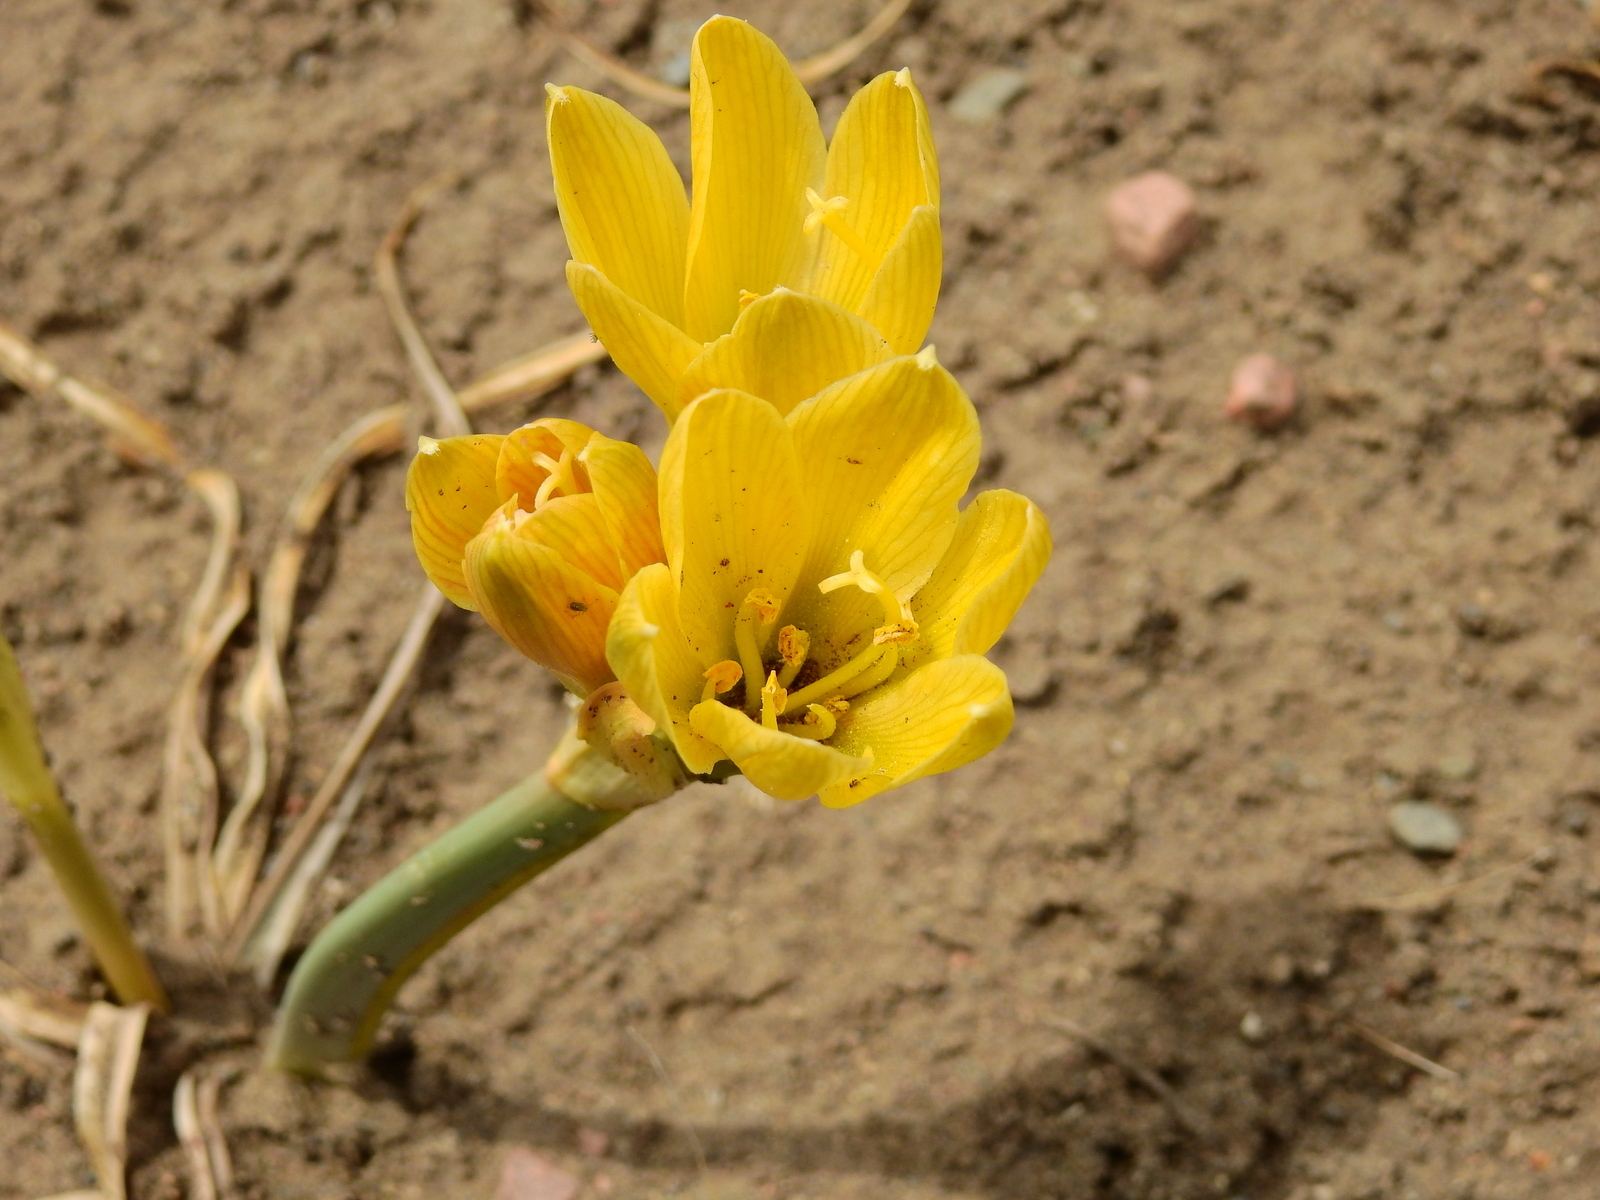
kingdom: Plantae
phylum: Tracheophyta
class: Liliopsida
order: Asparagales
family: Amaryllidaceae
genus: Zephyranthes
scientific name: Zephyranthes gilliesiana
